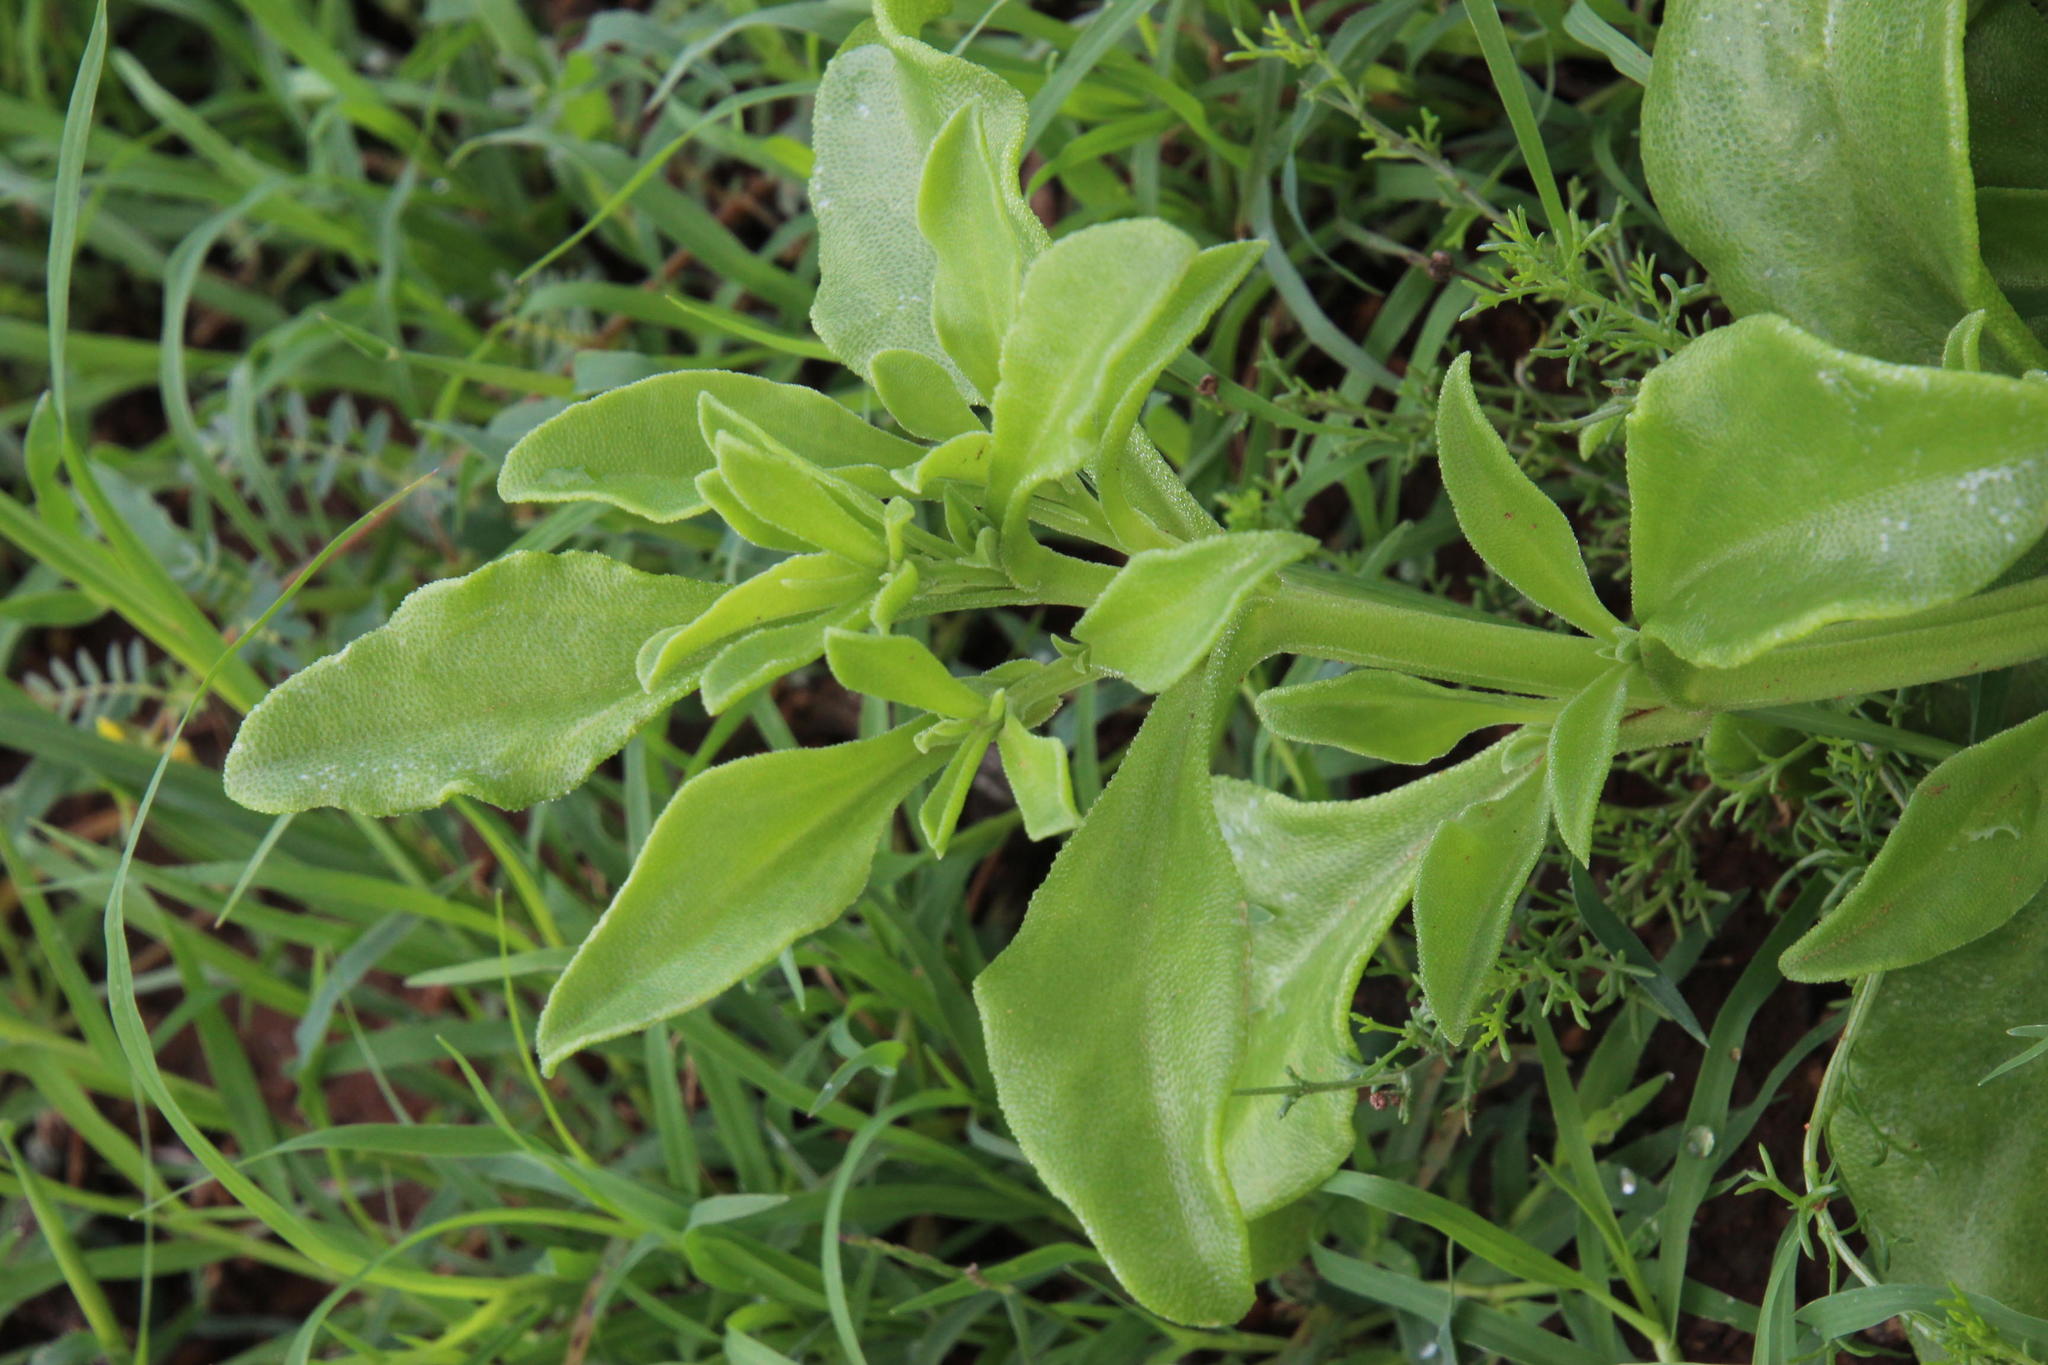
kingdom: Plantae
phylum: Tracheophyta
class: Magnoliopsida
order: Caryophyllales
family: Aizoaceae
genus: Mesembryanthemum
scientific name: Mesembryanthemum guerichianum
